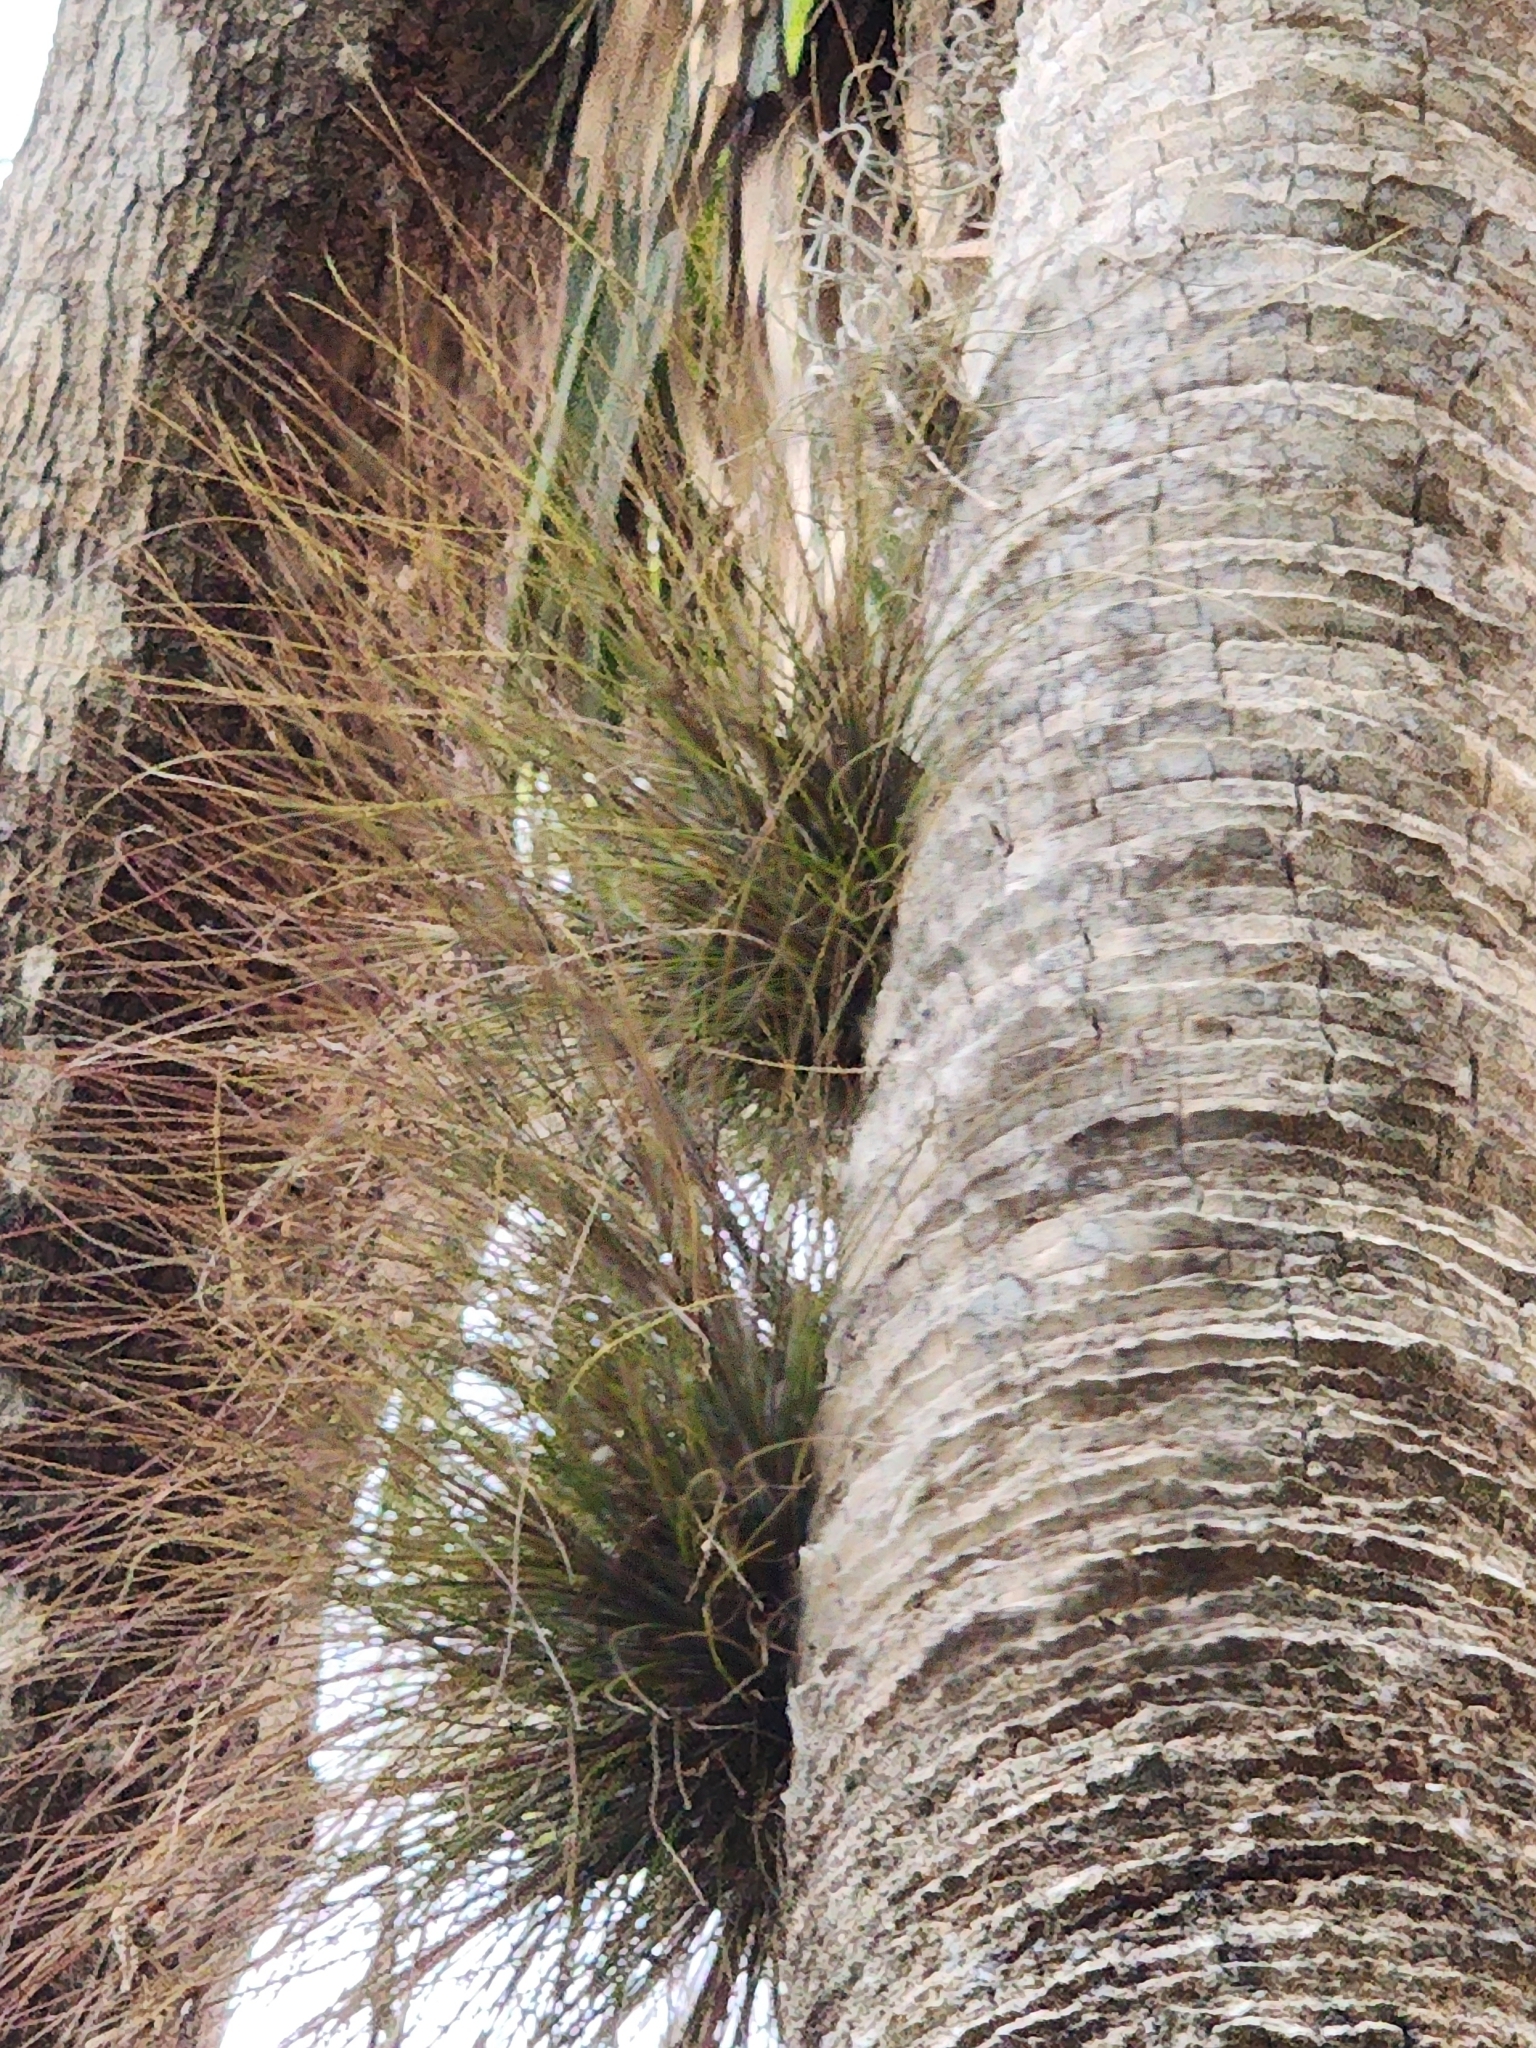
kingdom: Plantae
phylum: Tracheophyta
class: Liliopsida
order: Poales
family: Bromeliaceae
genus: Tillandsia
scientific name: Tillandsia setacea
